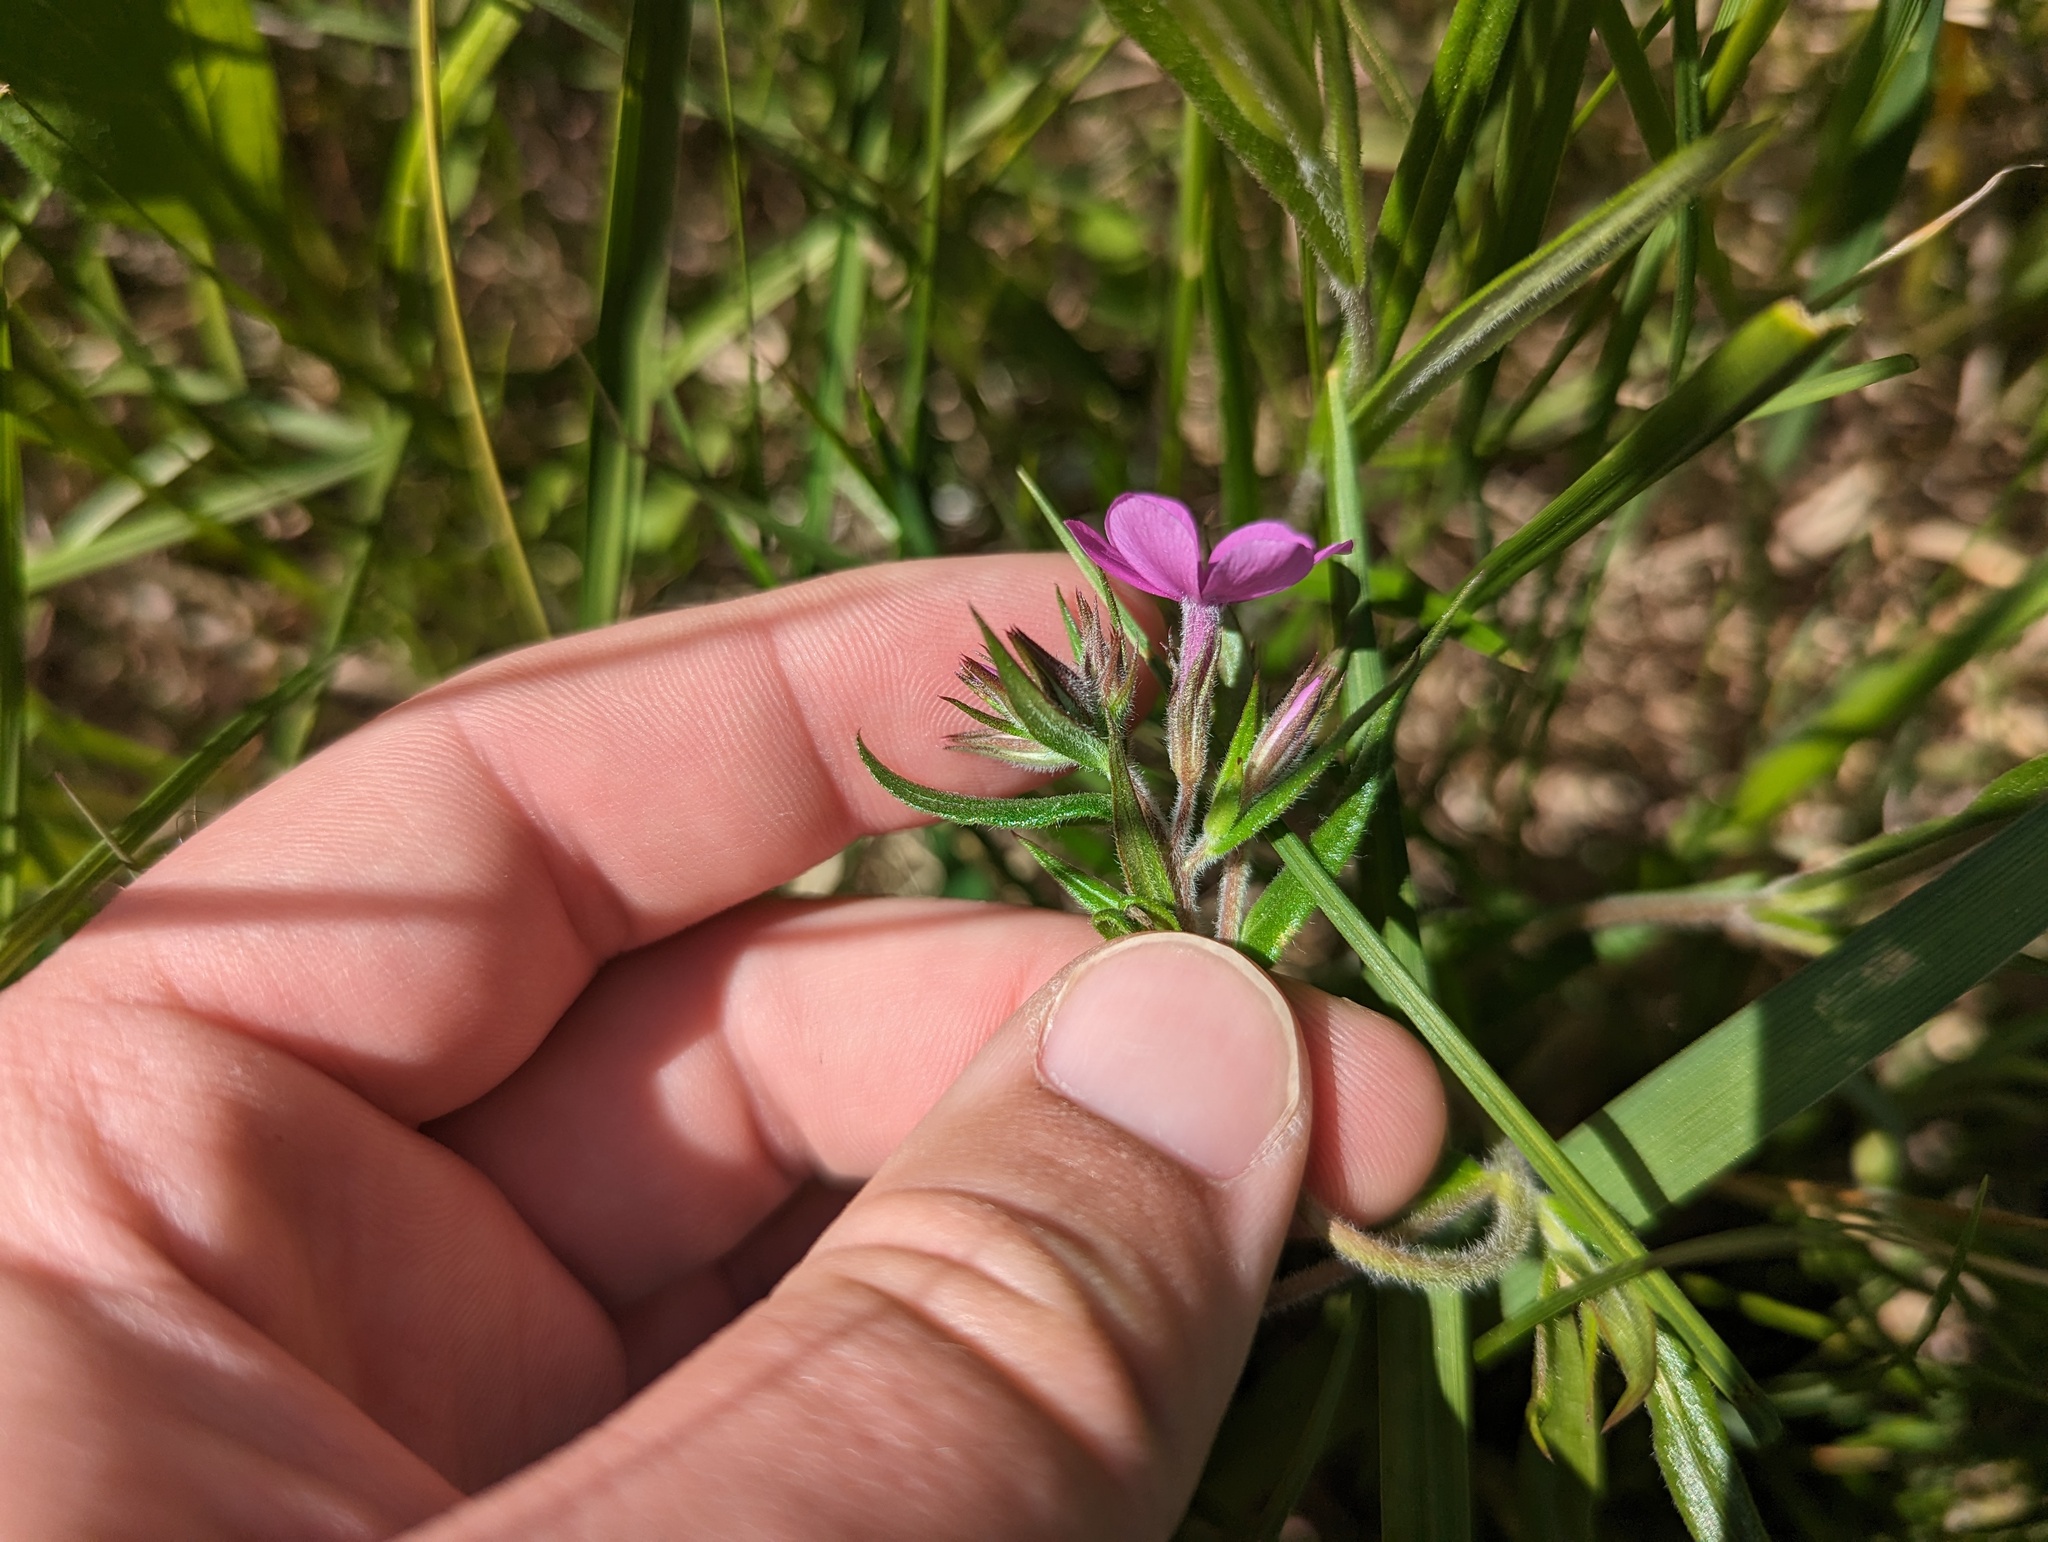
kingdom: Plantae
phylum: Tracheophyta
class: Magnoliopsida
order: Ericales
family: Polemoniaceae
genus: Phlox
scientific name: Phlox pilosa
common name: Prairie phlox
